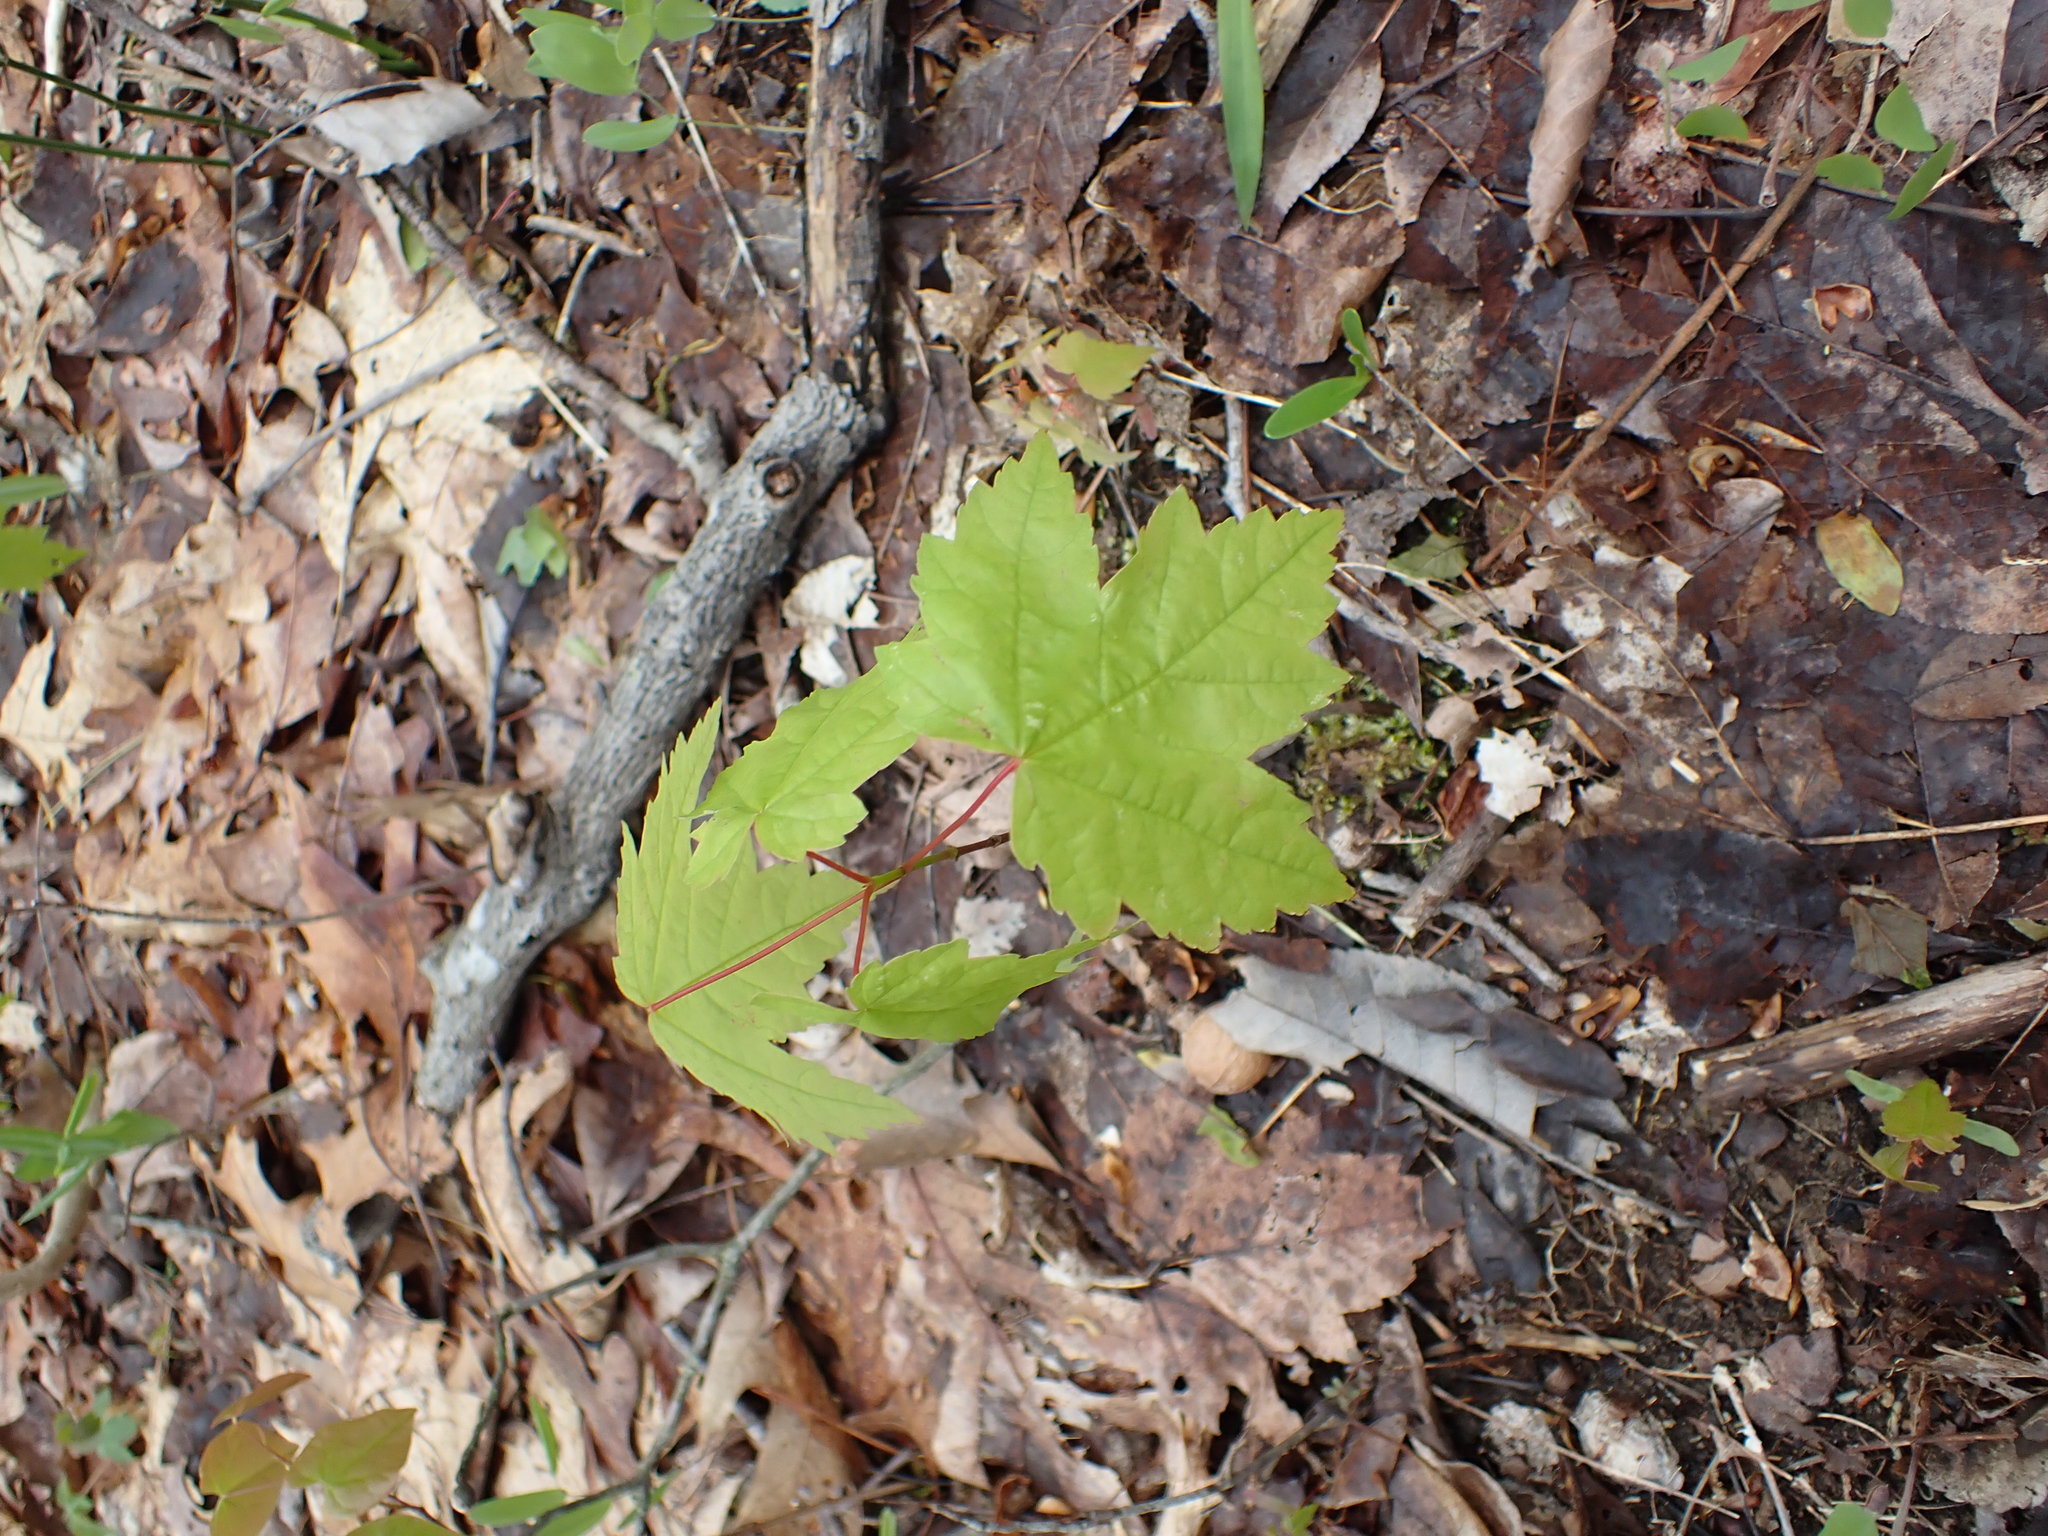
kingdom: Plantae
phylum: Tracheophyta
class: Magnoliopsida
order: Sapindales
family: Sapindaceae
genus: Acer
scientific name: Acer rubrum
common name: Red maple
